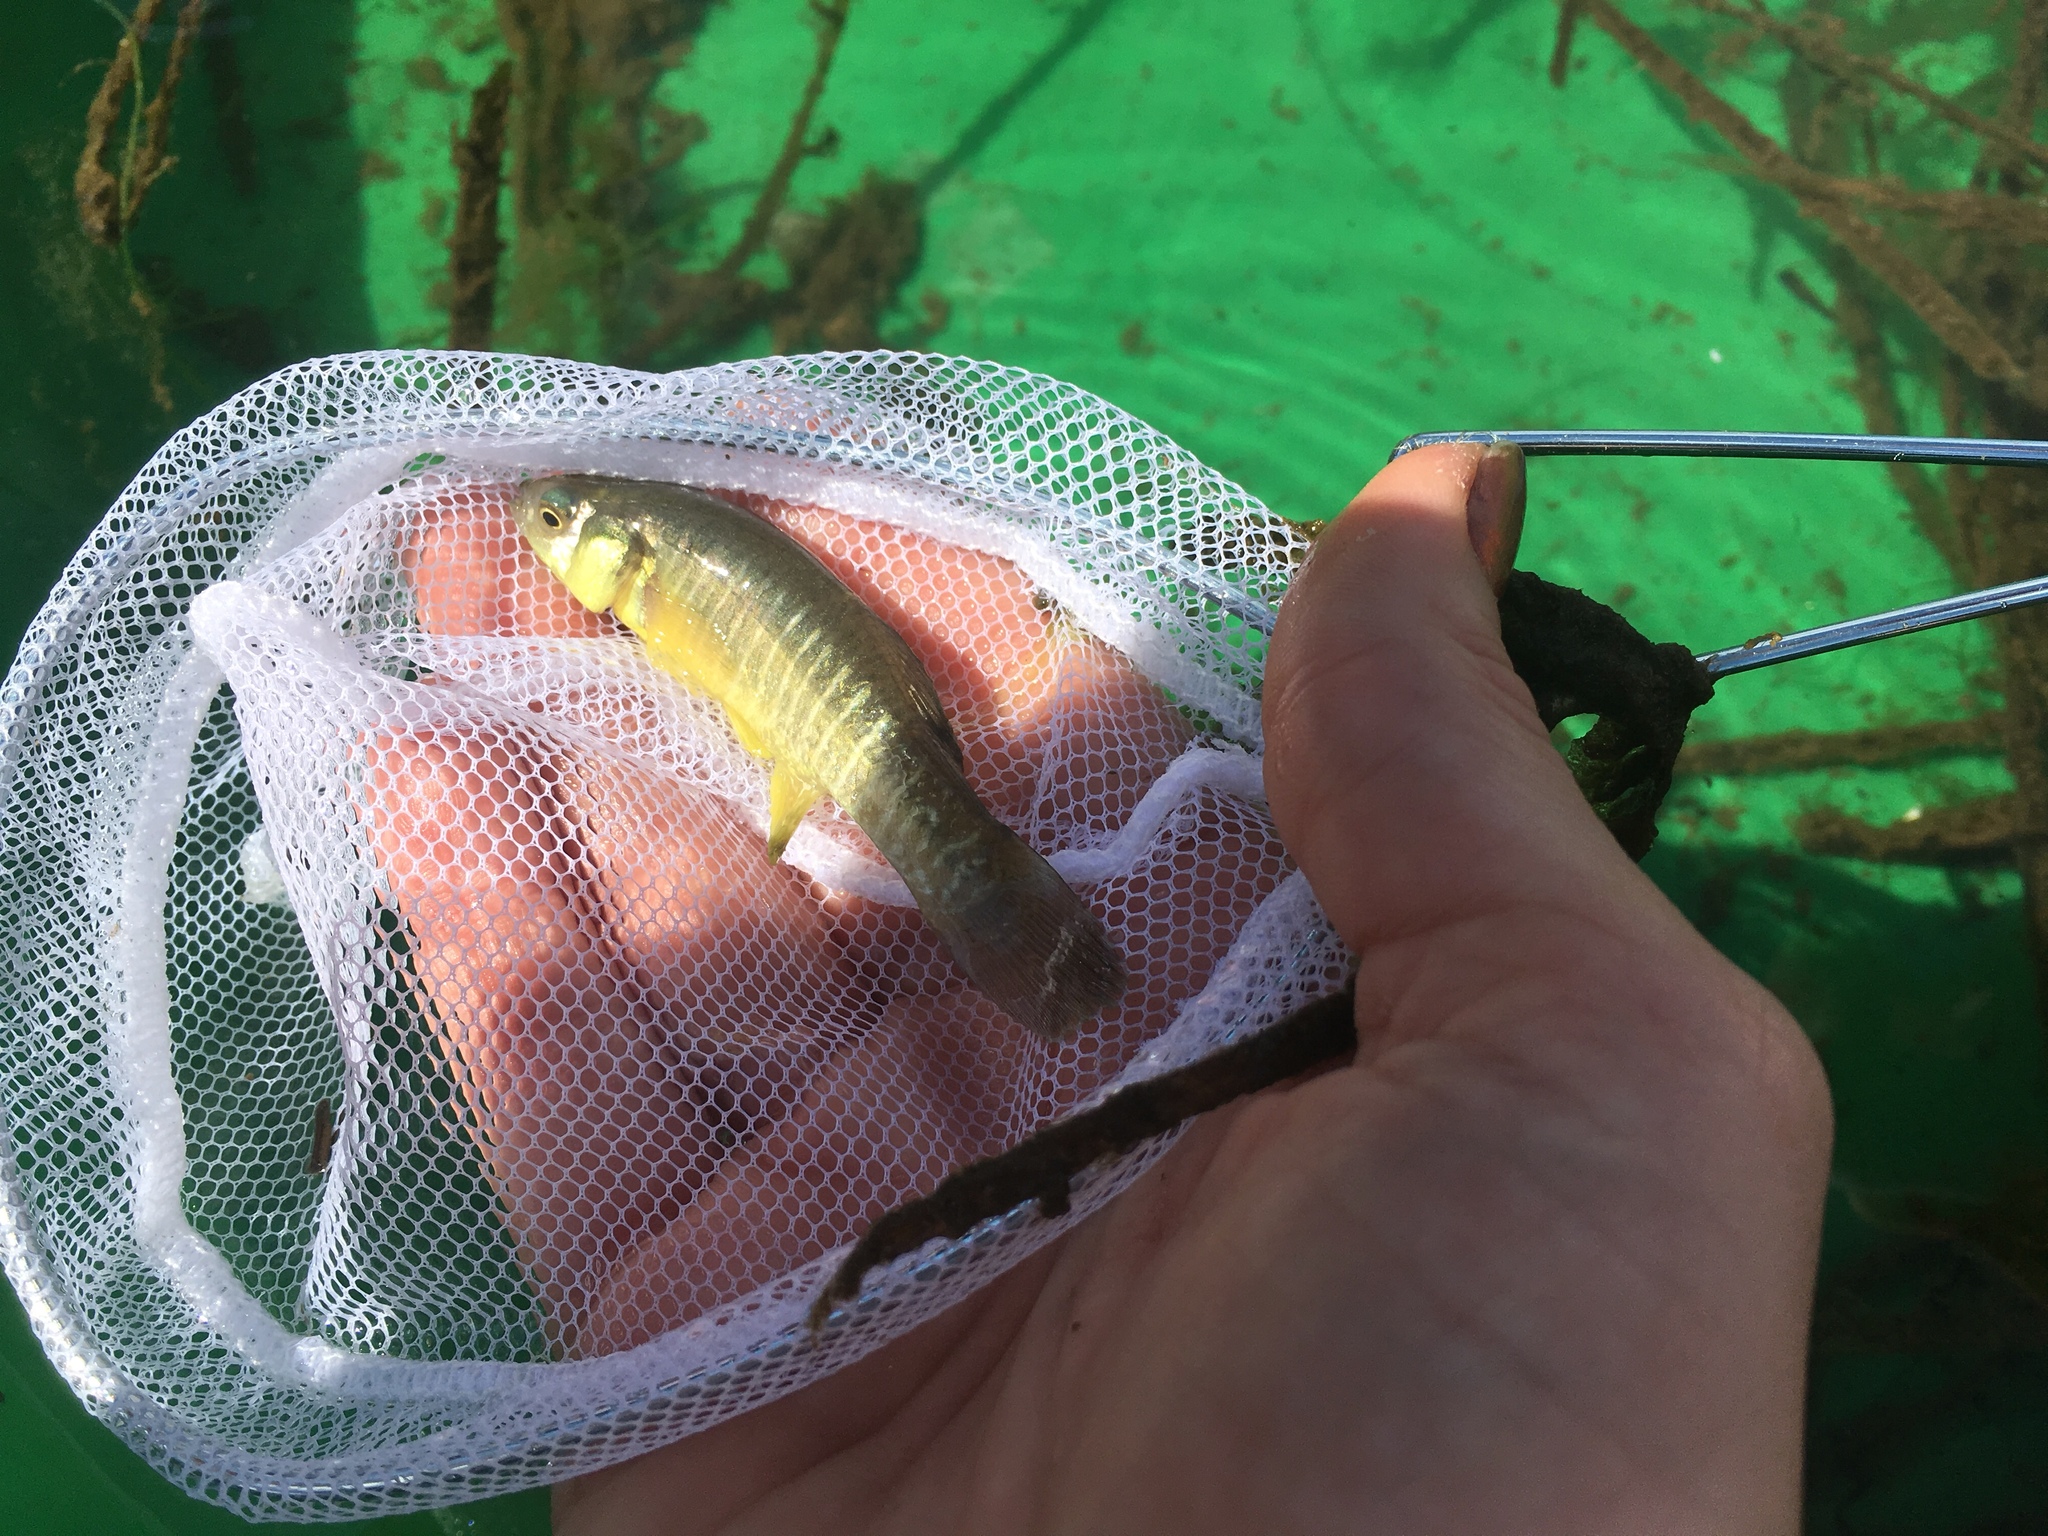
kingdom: Animalia
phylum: Chordata
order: Cyprinodontiformes
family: Fundulidae
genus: Fundulus
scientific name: Fundulus heteroclitus
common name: Mummichog
